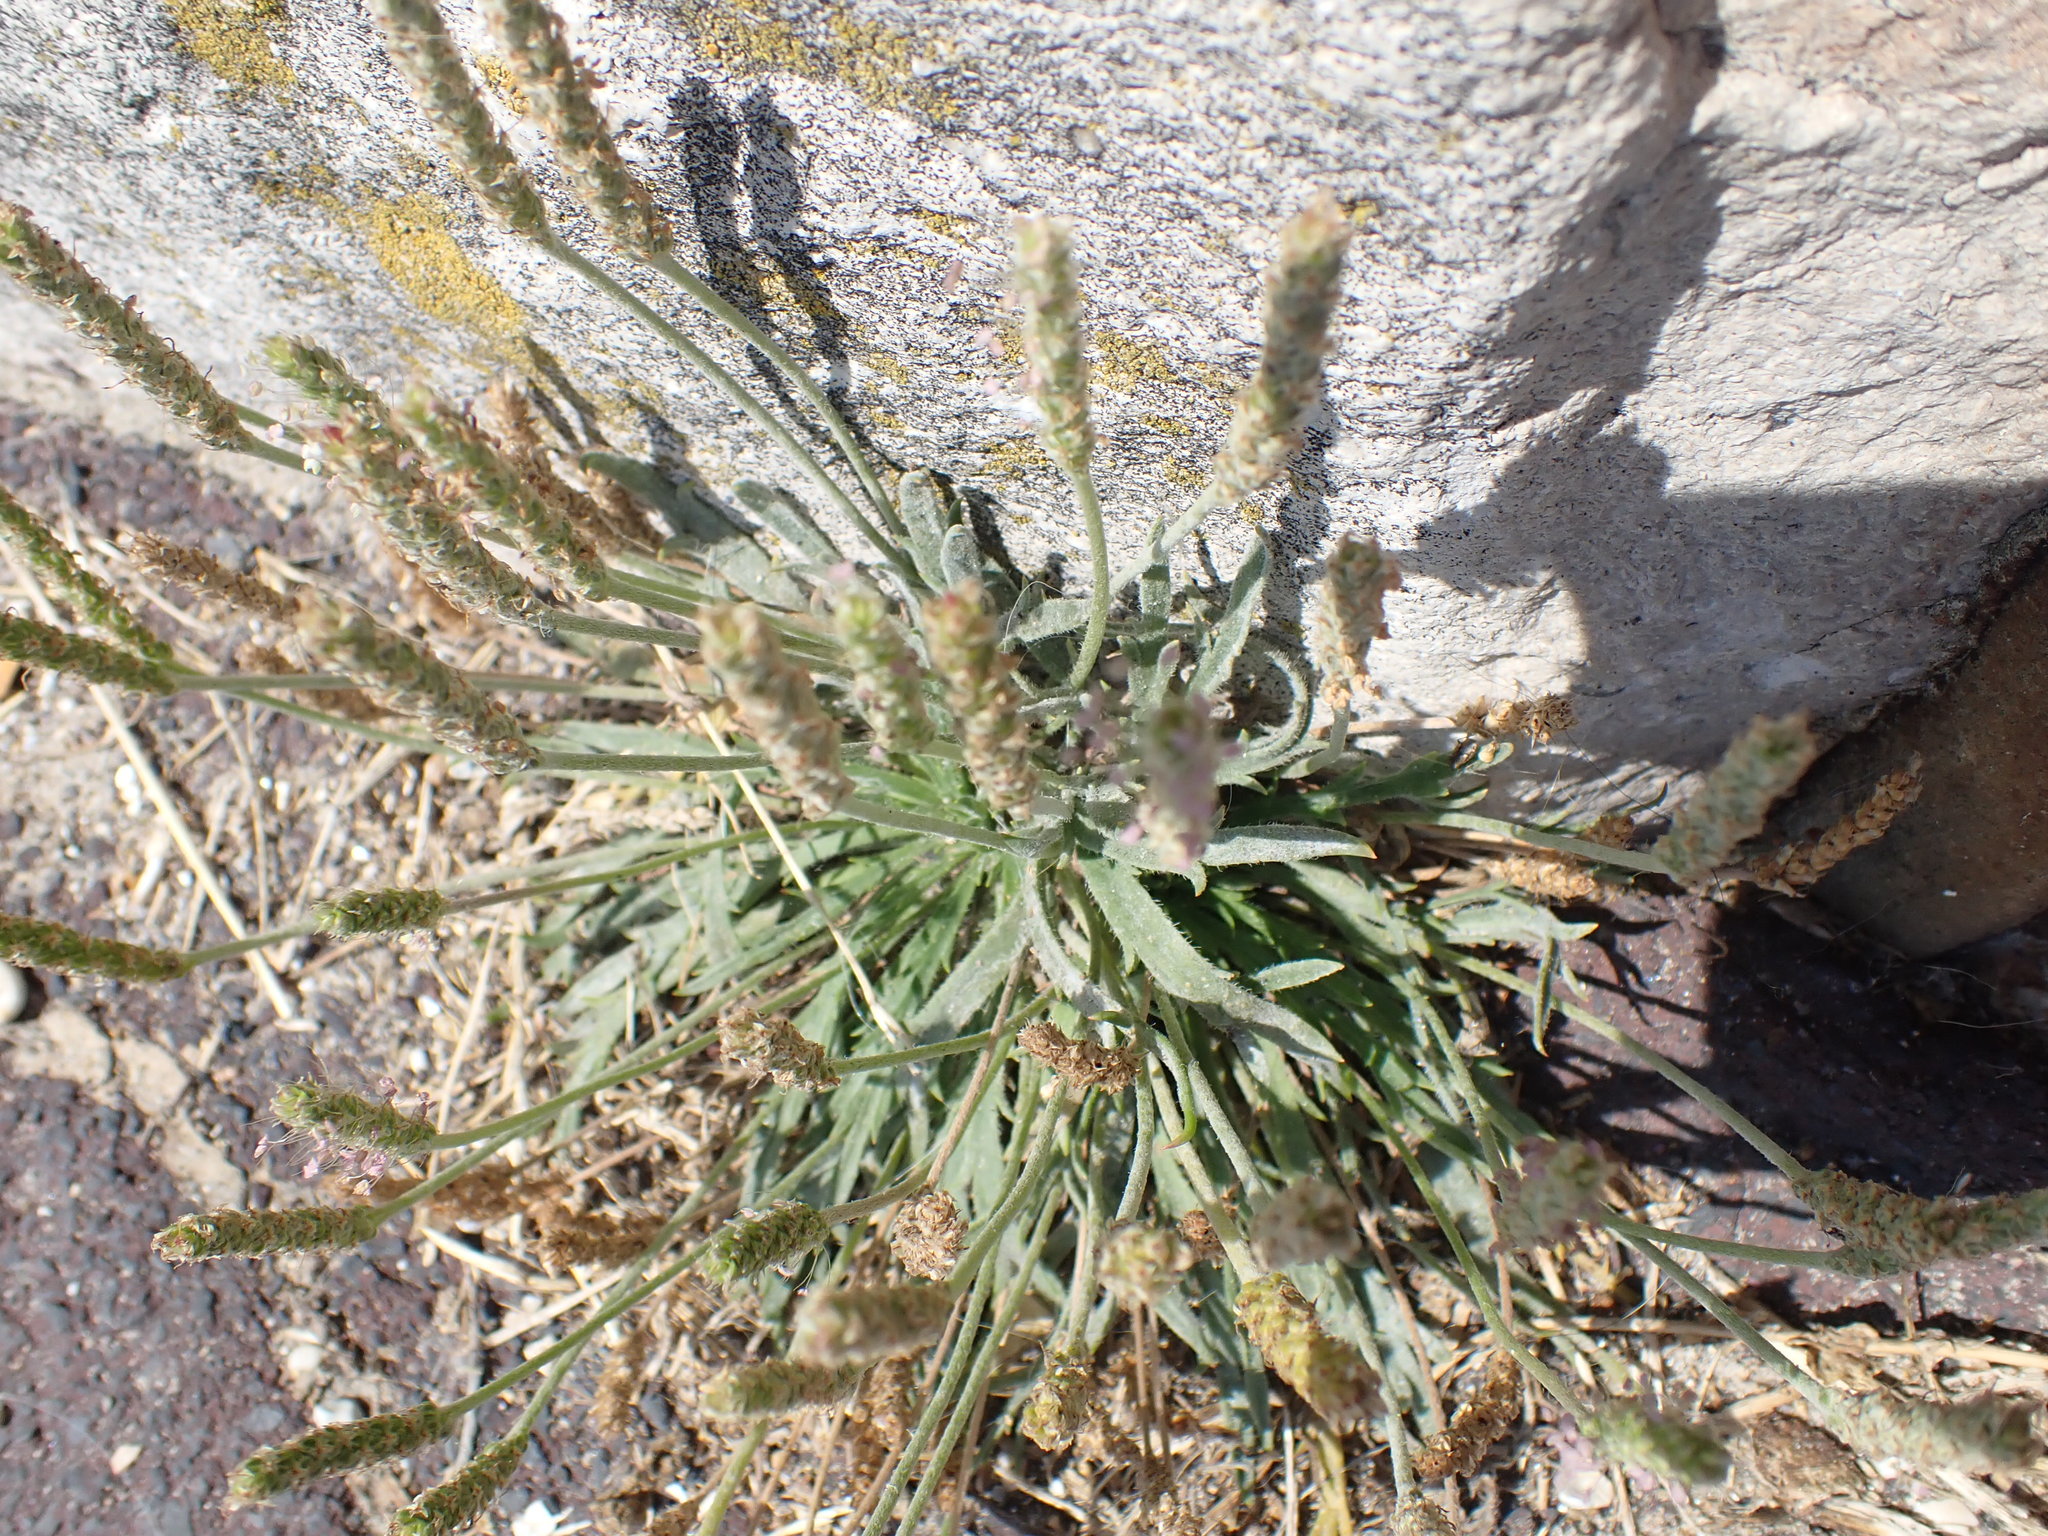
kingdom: Plantae
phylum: Tracheophyta
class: Magnoliopsida
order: Lamiales
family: Plantaginaceae
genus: Plantago
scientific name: Plantago coronopus
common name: Buck's-horn plantain
